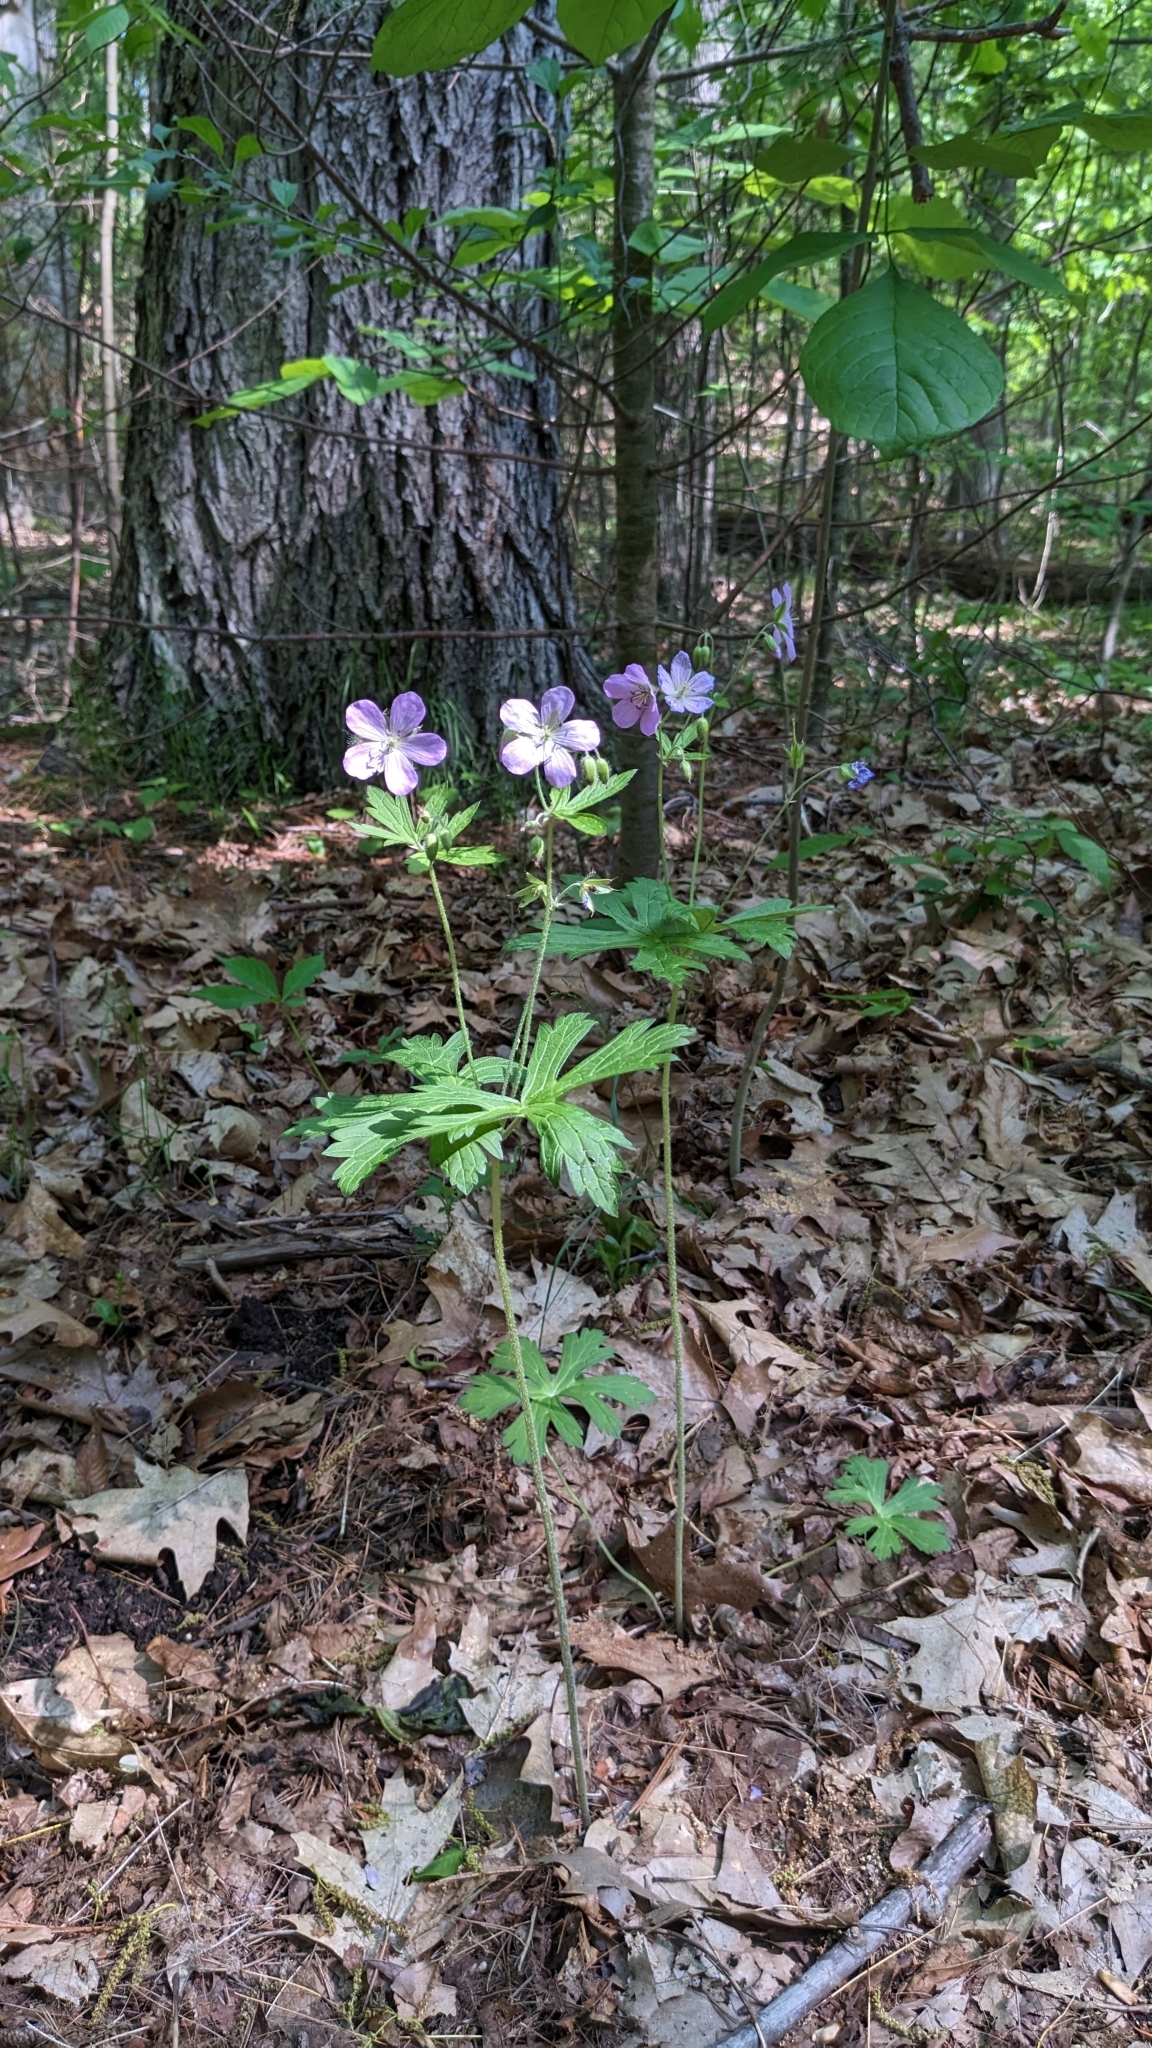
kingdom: Plantae
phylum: Tracheophyta
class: Magnoliopsida
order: Geraniales
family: Geraniaceae
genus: Geranium
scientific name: Geranium maculatum
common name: Spotted geranium
